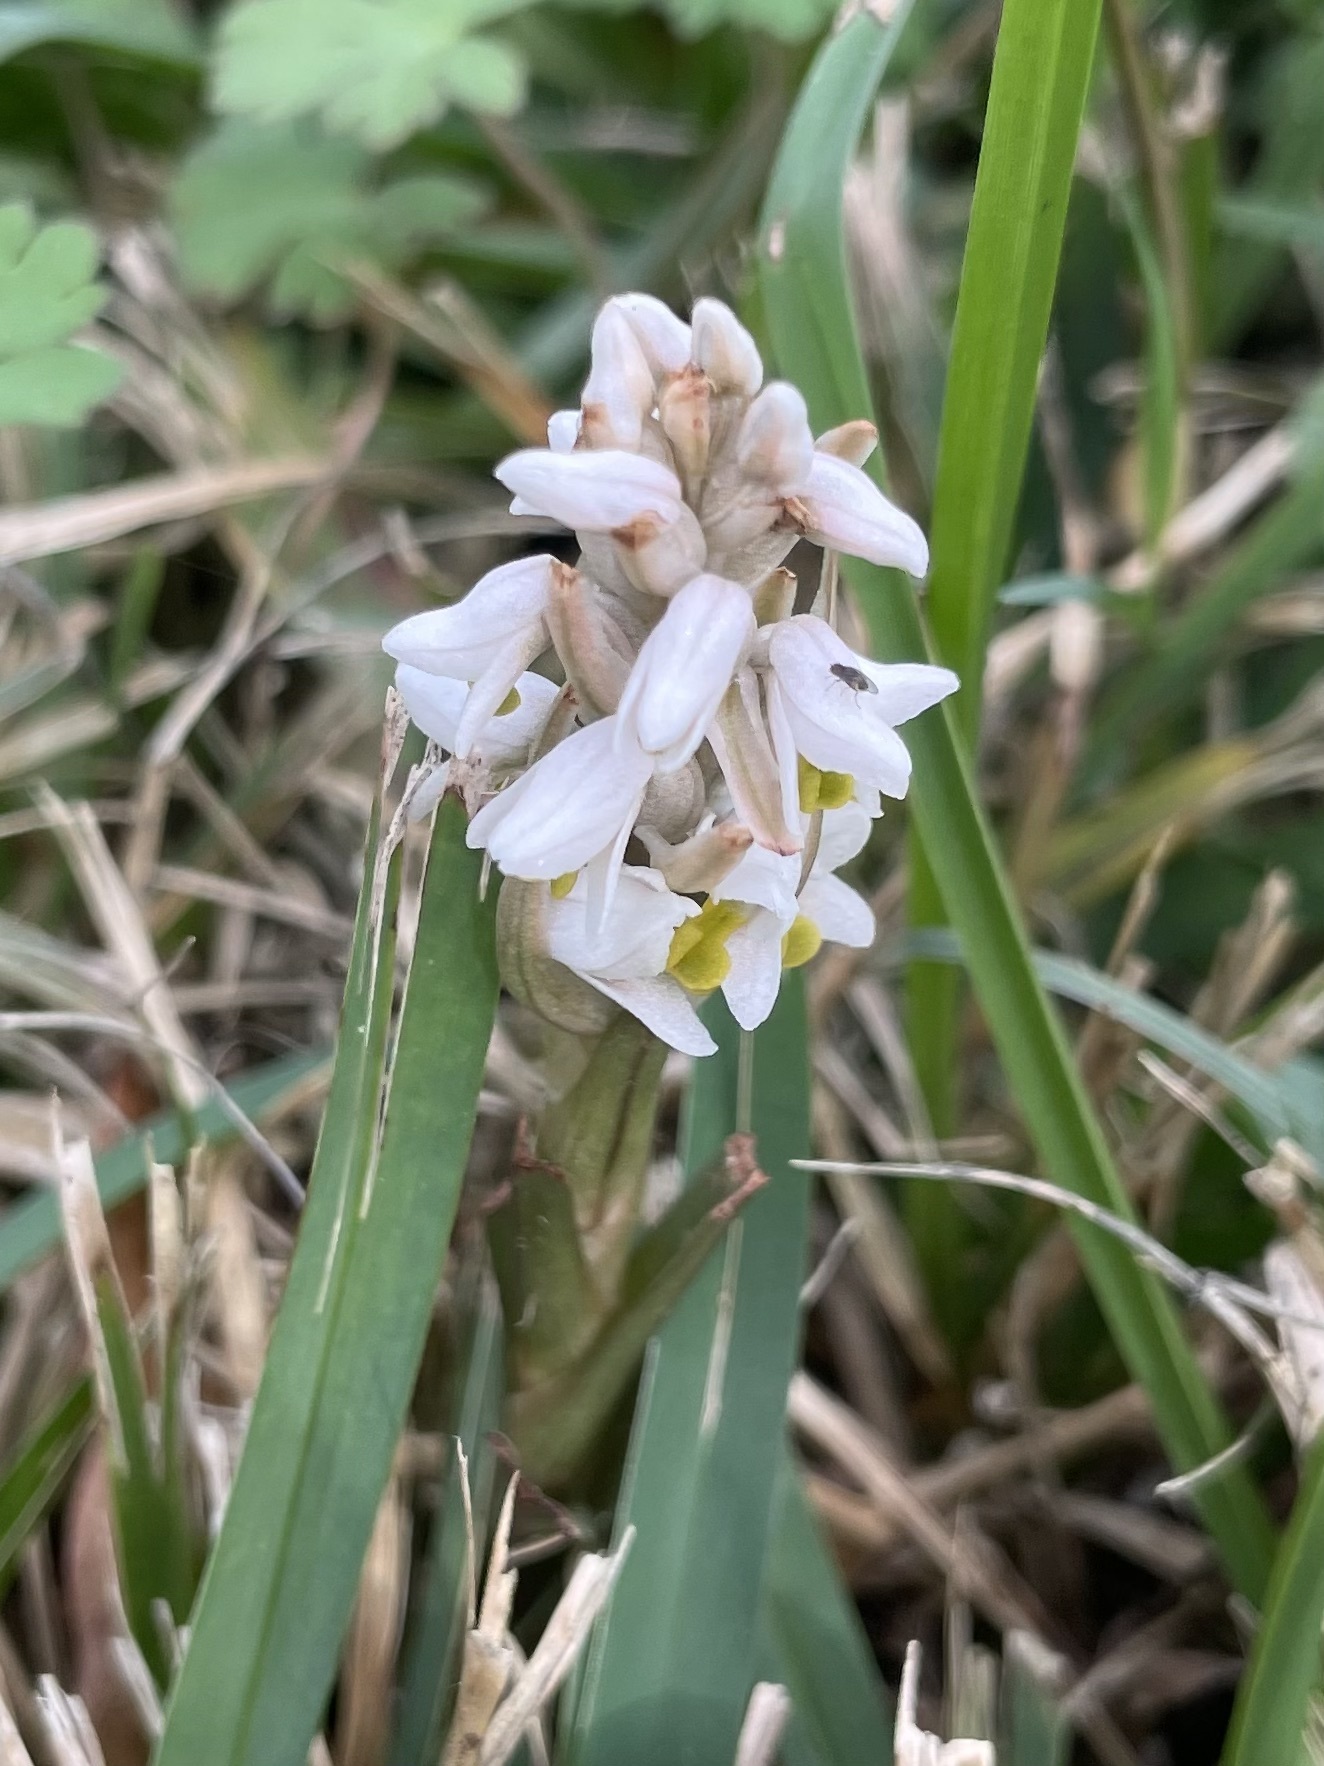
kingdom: Plantae
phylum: Tracheophyta
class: Liliopsida
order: Asparagales
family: Orchidaceae
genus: Zeuxine
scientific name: Zeuxine strateumatica
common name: Soldier's orchid
